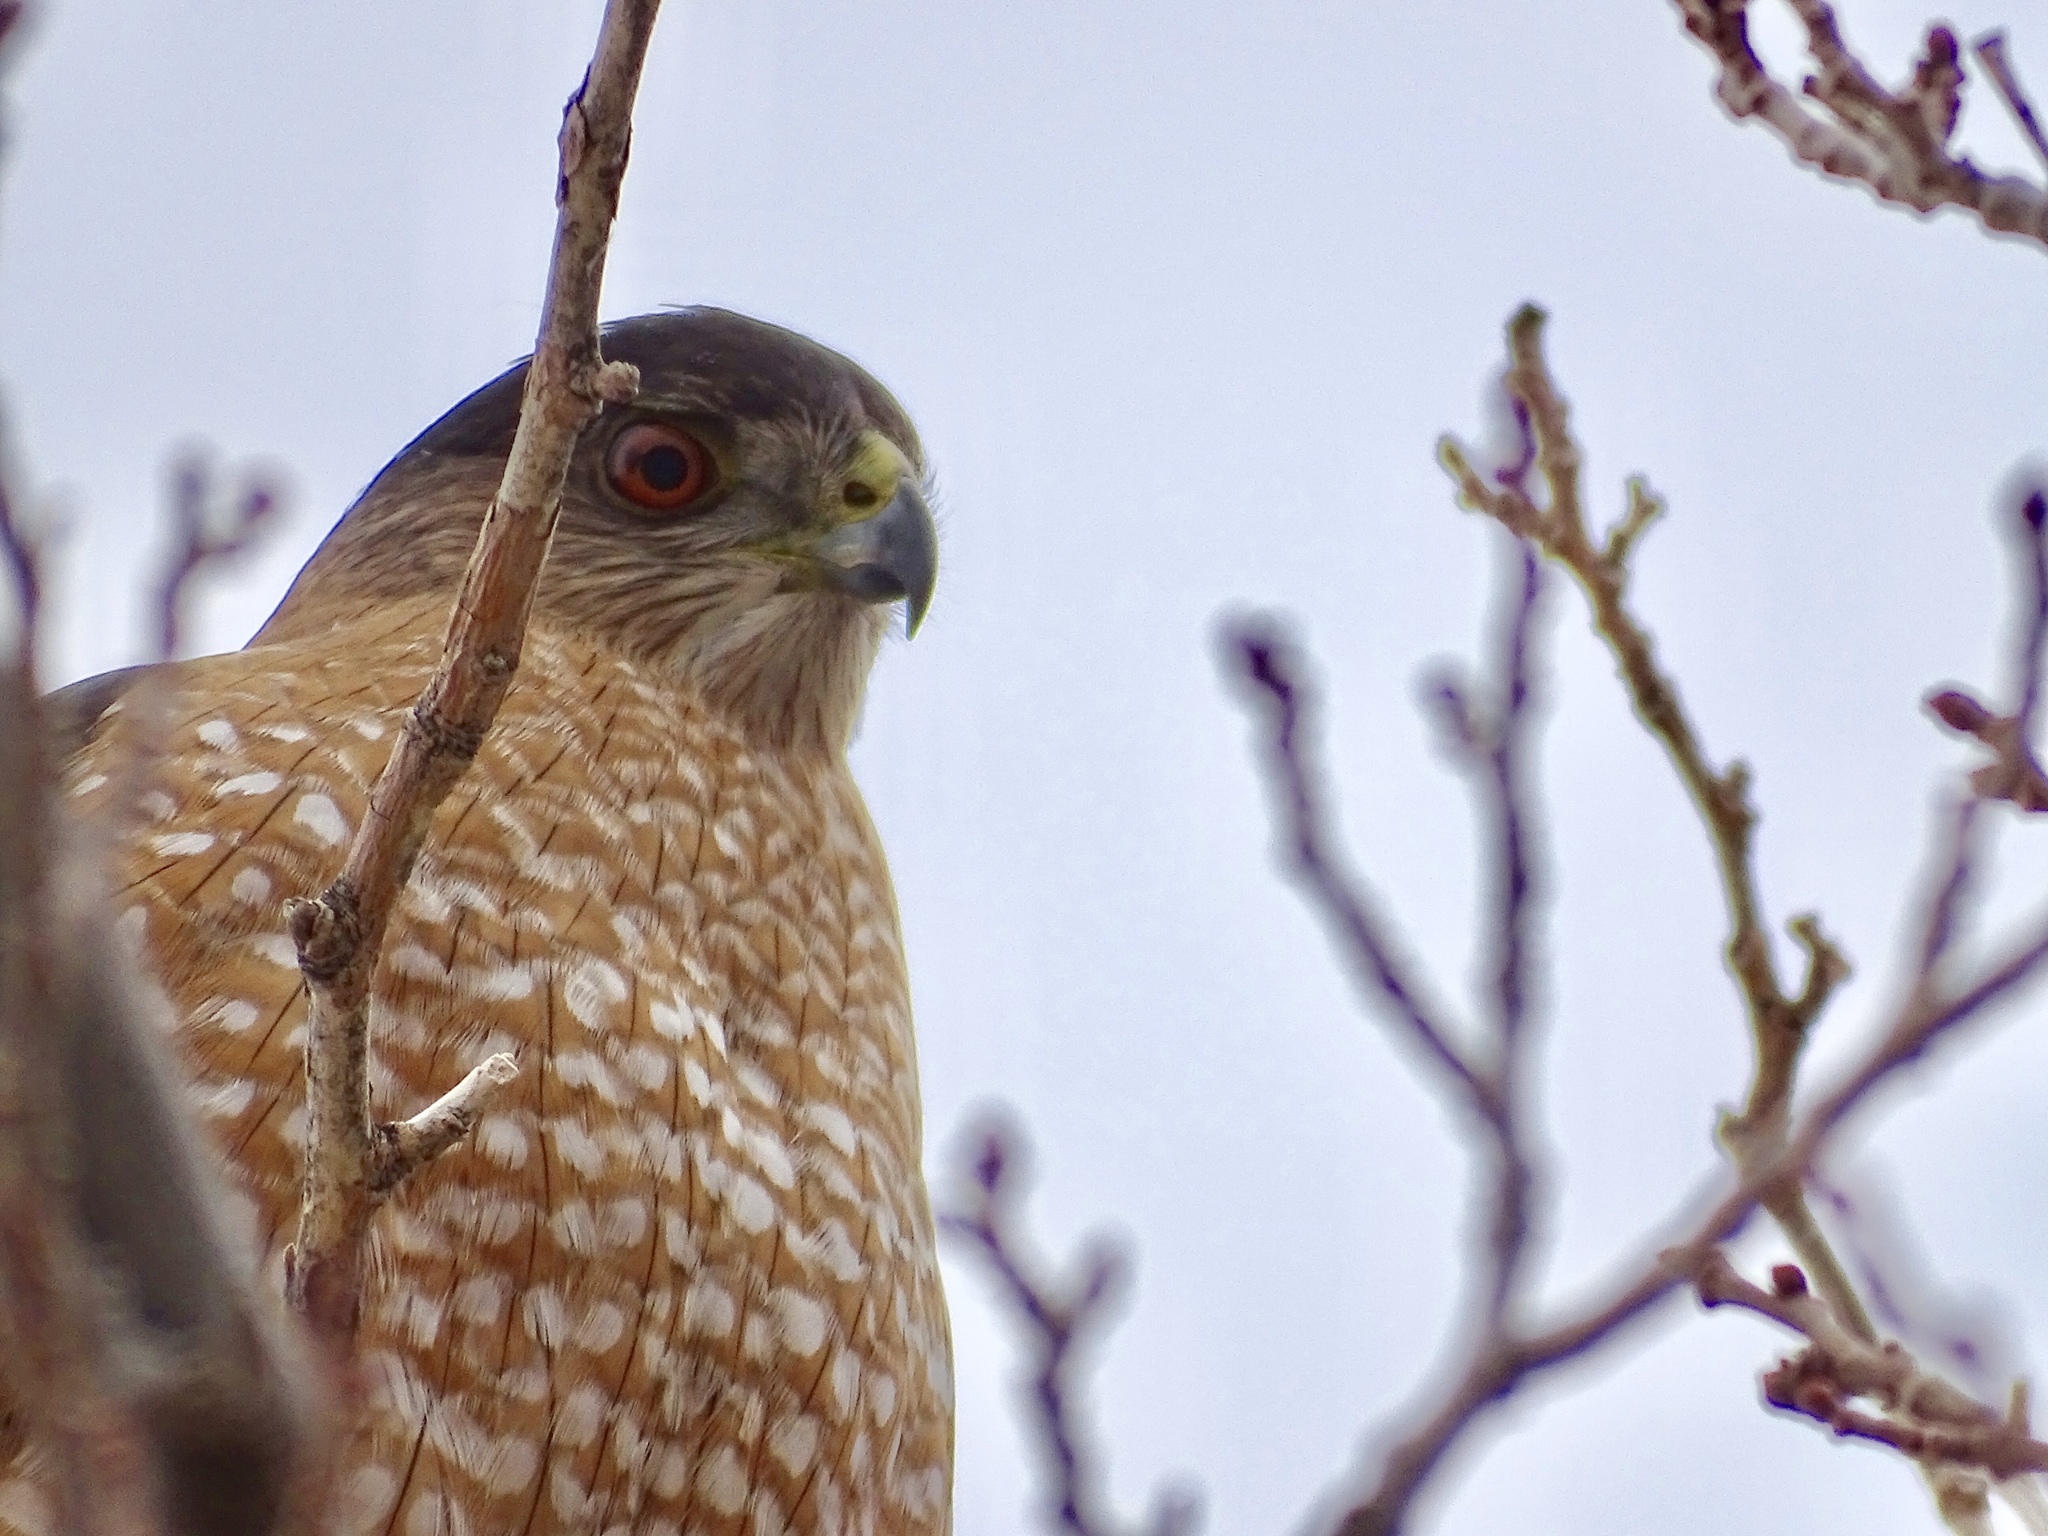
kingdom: Animalia
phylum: Chordata
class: Aves
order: Accipitriformes
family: Accipitridae
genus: Accipiter
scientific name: Accipiter cooperii
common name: Cooper's hawk
